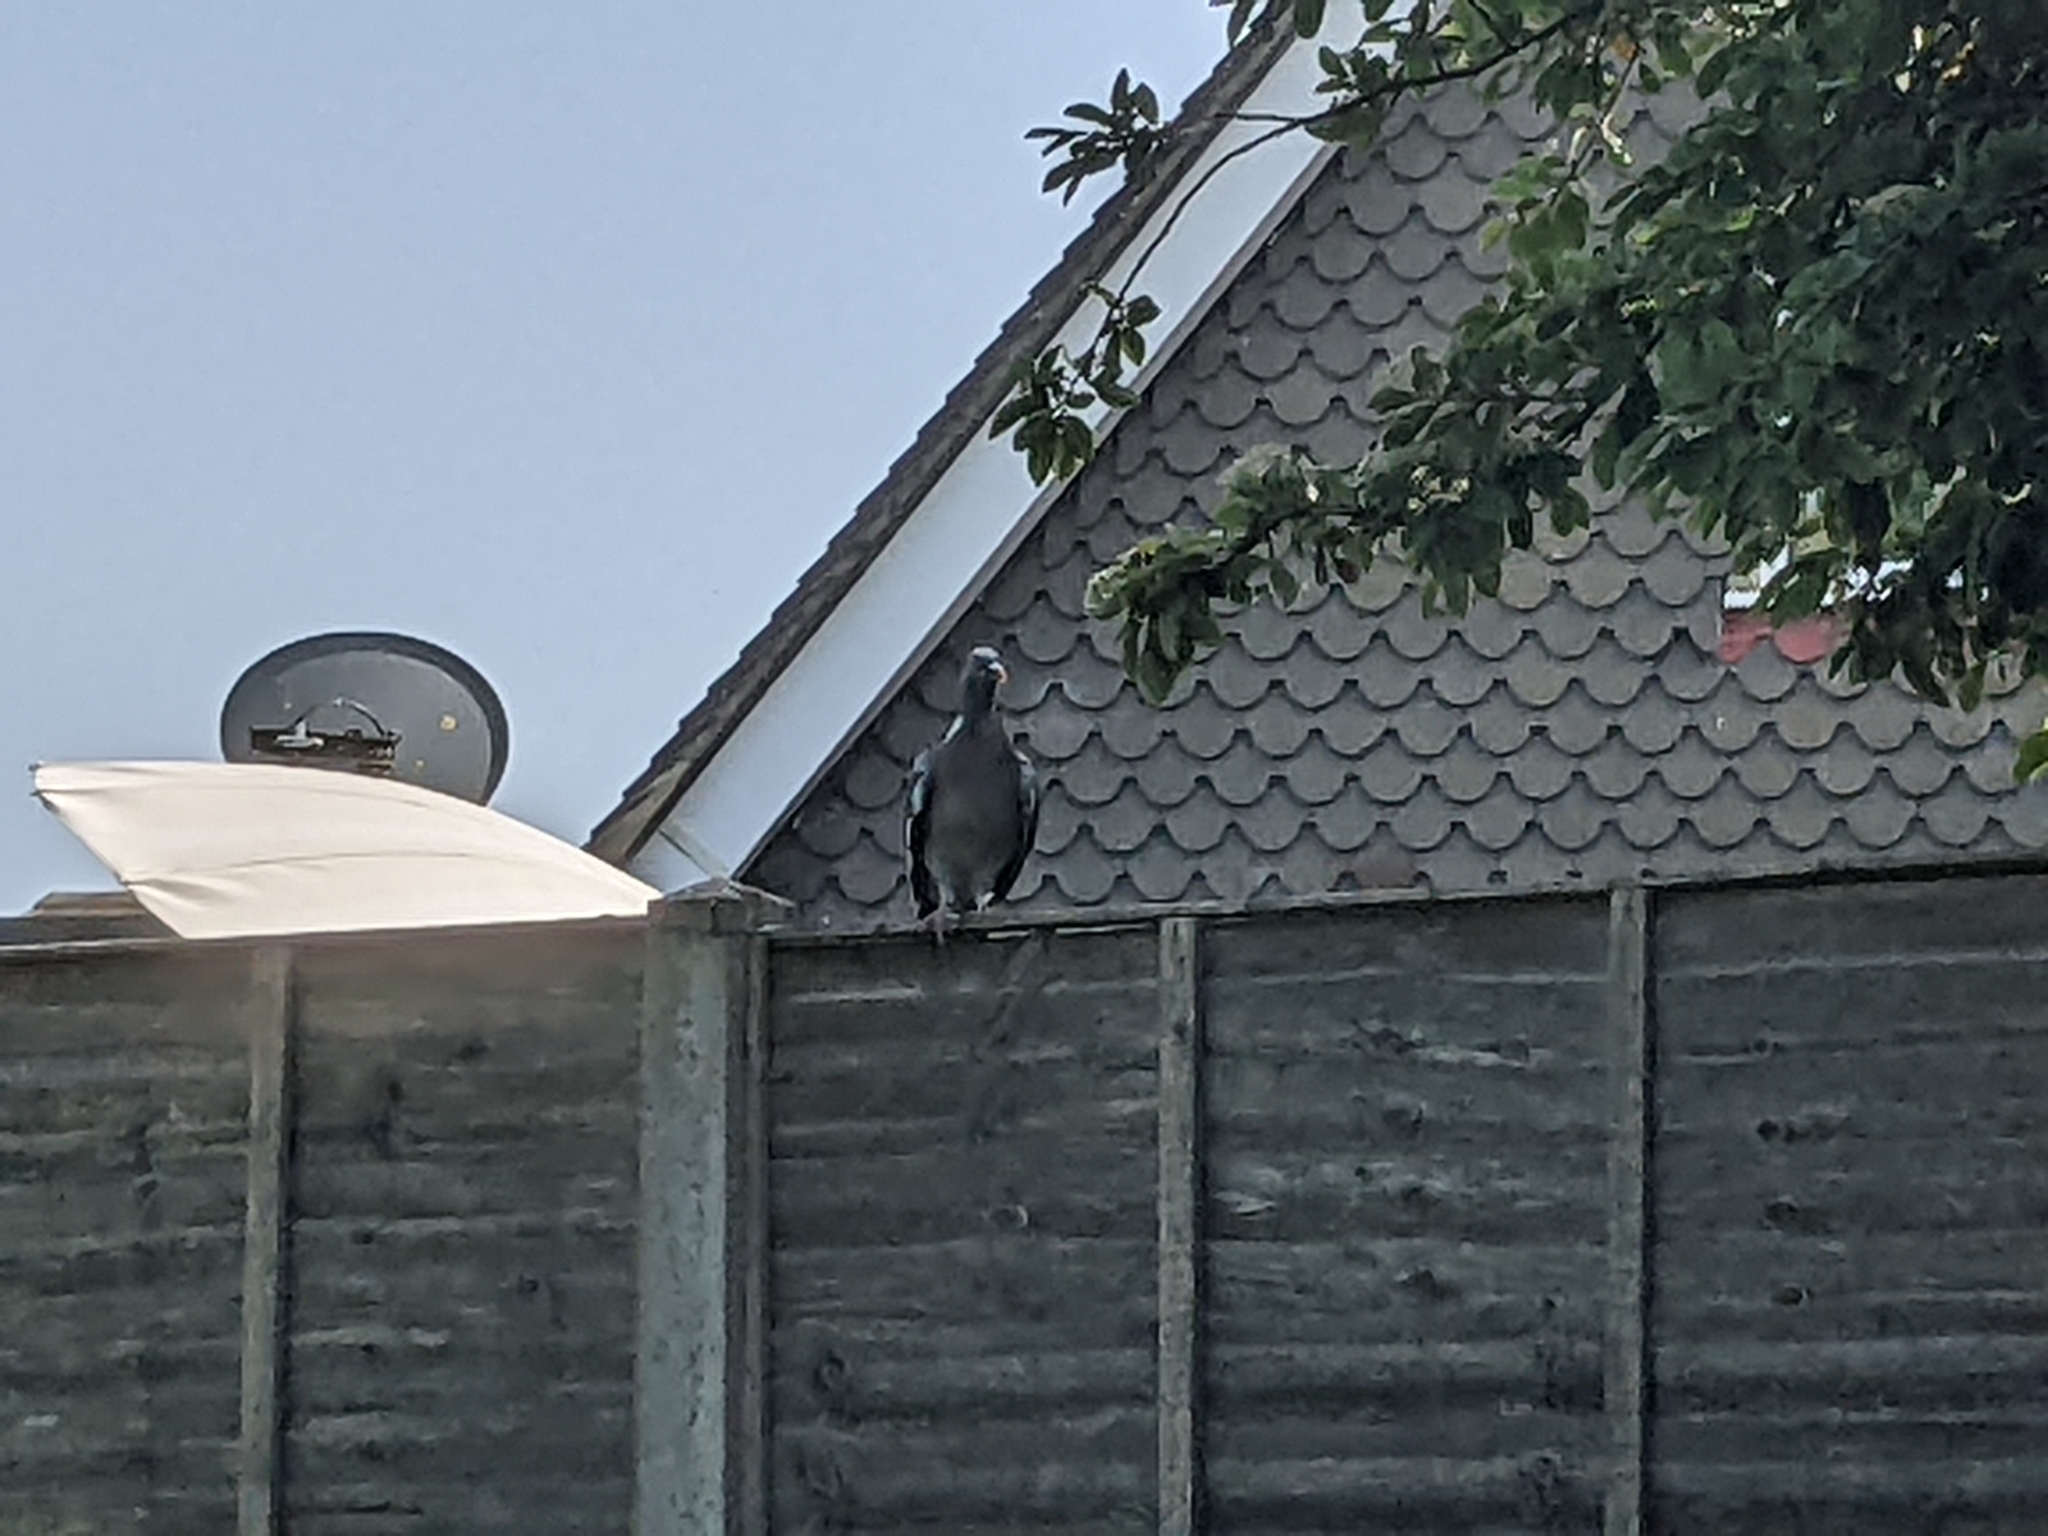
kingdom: Animalia
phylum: Chordata
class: Aves
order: Columbiformes
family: Columbidae
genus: Columba
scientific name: Columba palumbus
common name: Common wood pigeon
